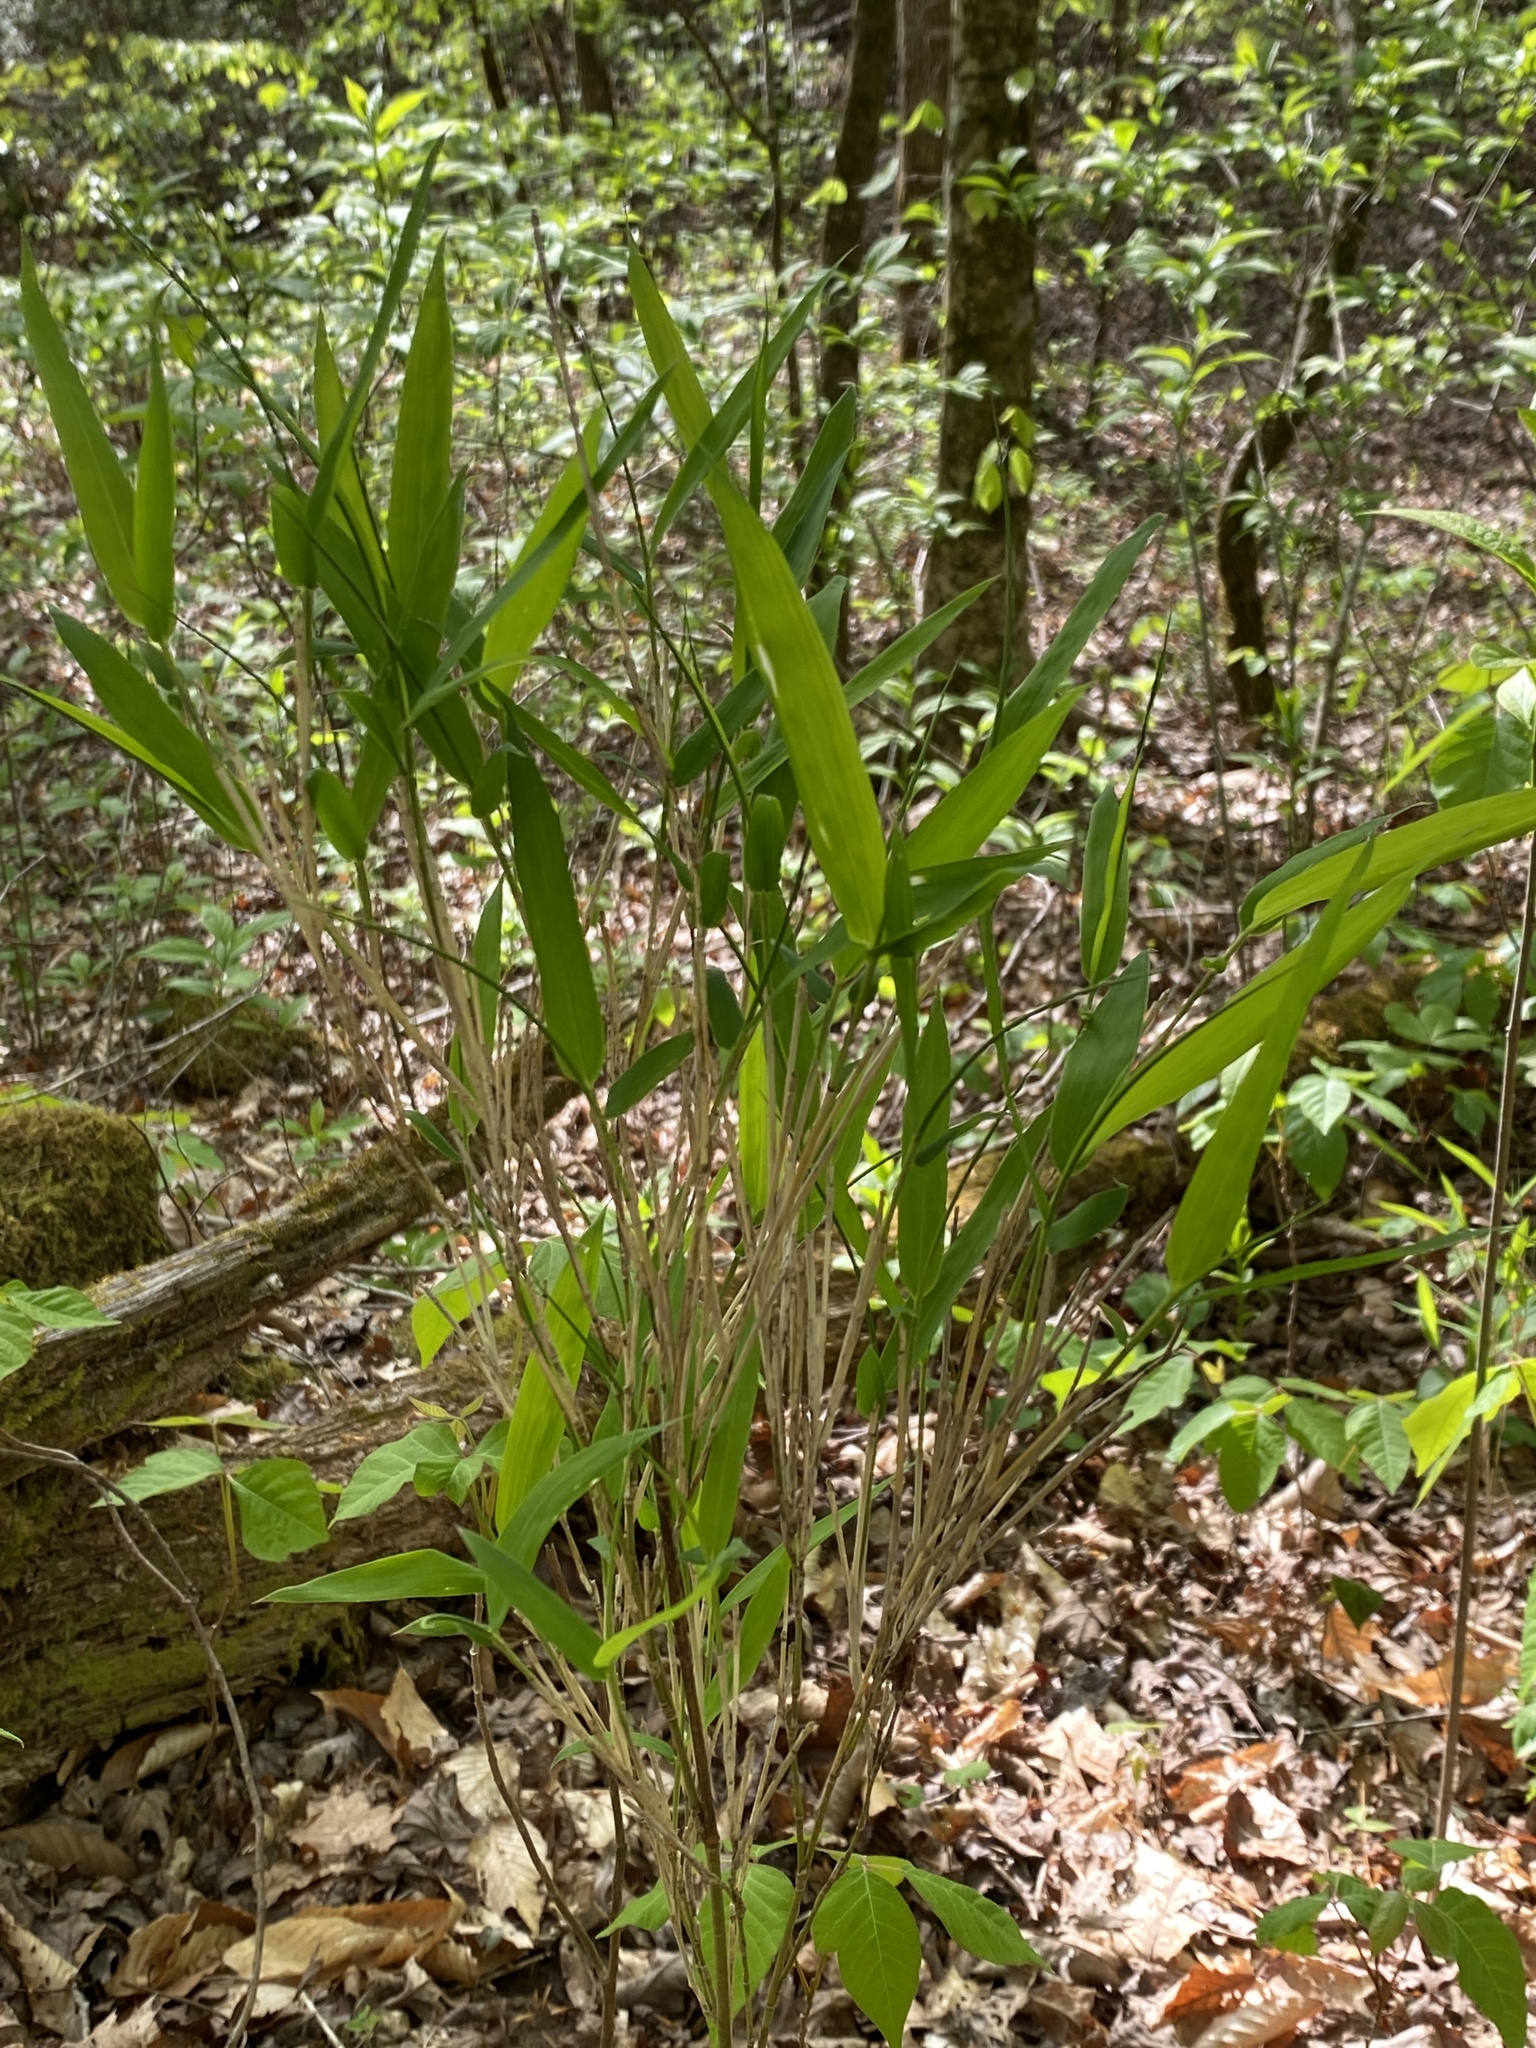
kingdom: Plantae
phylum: Tracheophyta
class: Liliopsida
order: Poales
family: Poaceae
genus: Arundinaria
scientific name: Arundinaria appalachiana
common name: Hill cane
